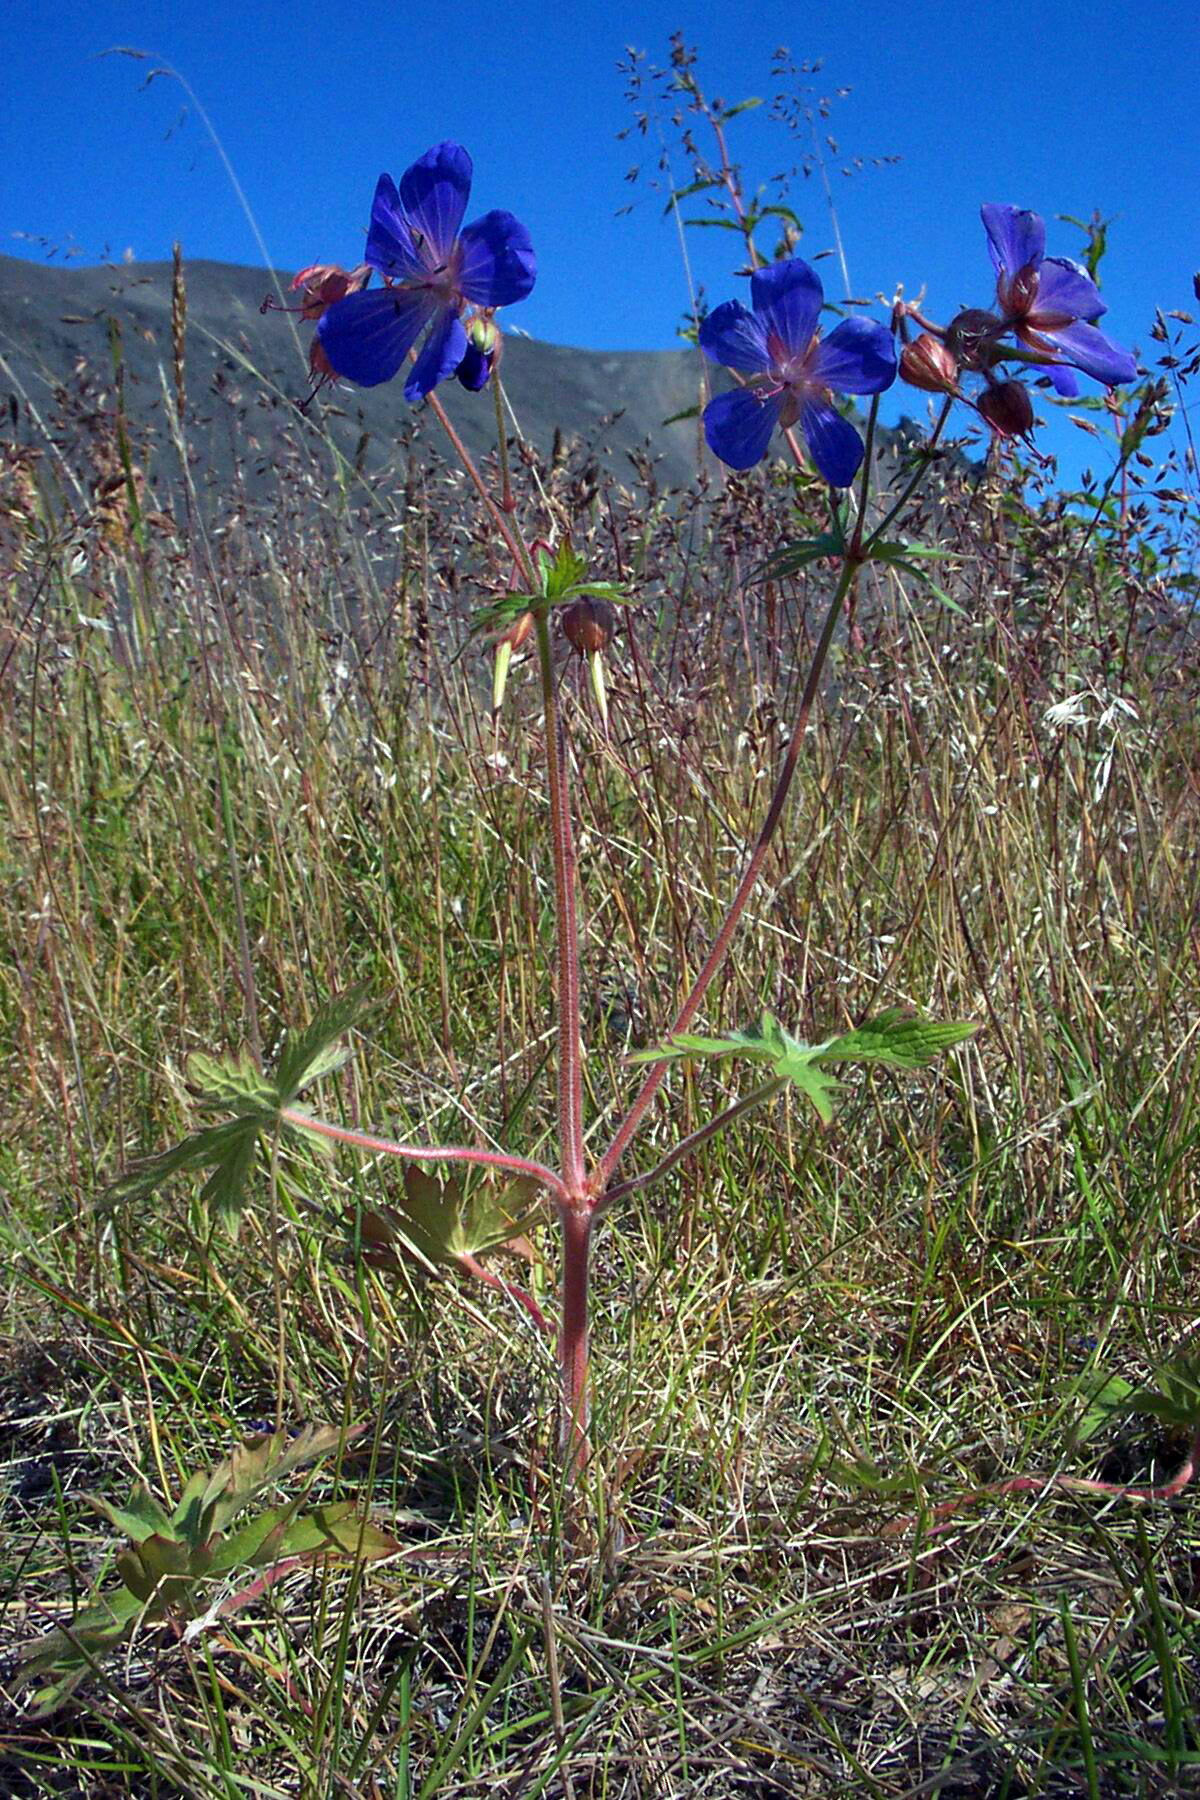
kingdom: Plantae
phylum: Tracheophyta
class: Magnoliopsida
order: Geraniales
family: Geraniaceae
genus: Geranium
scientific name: Geranium erianthum
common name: Northern crane's-bill
